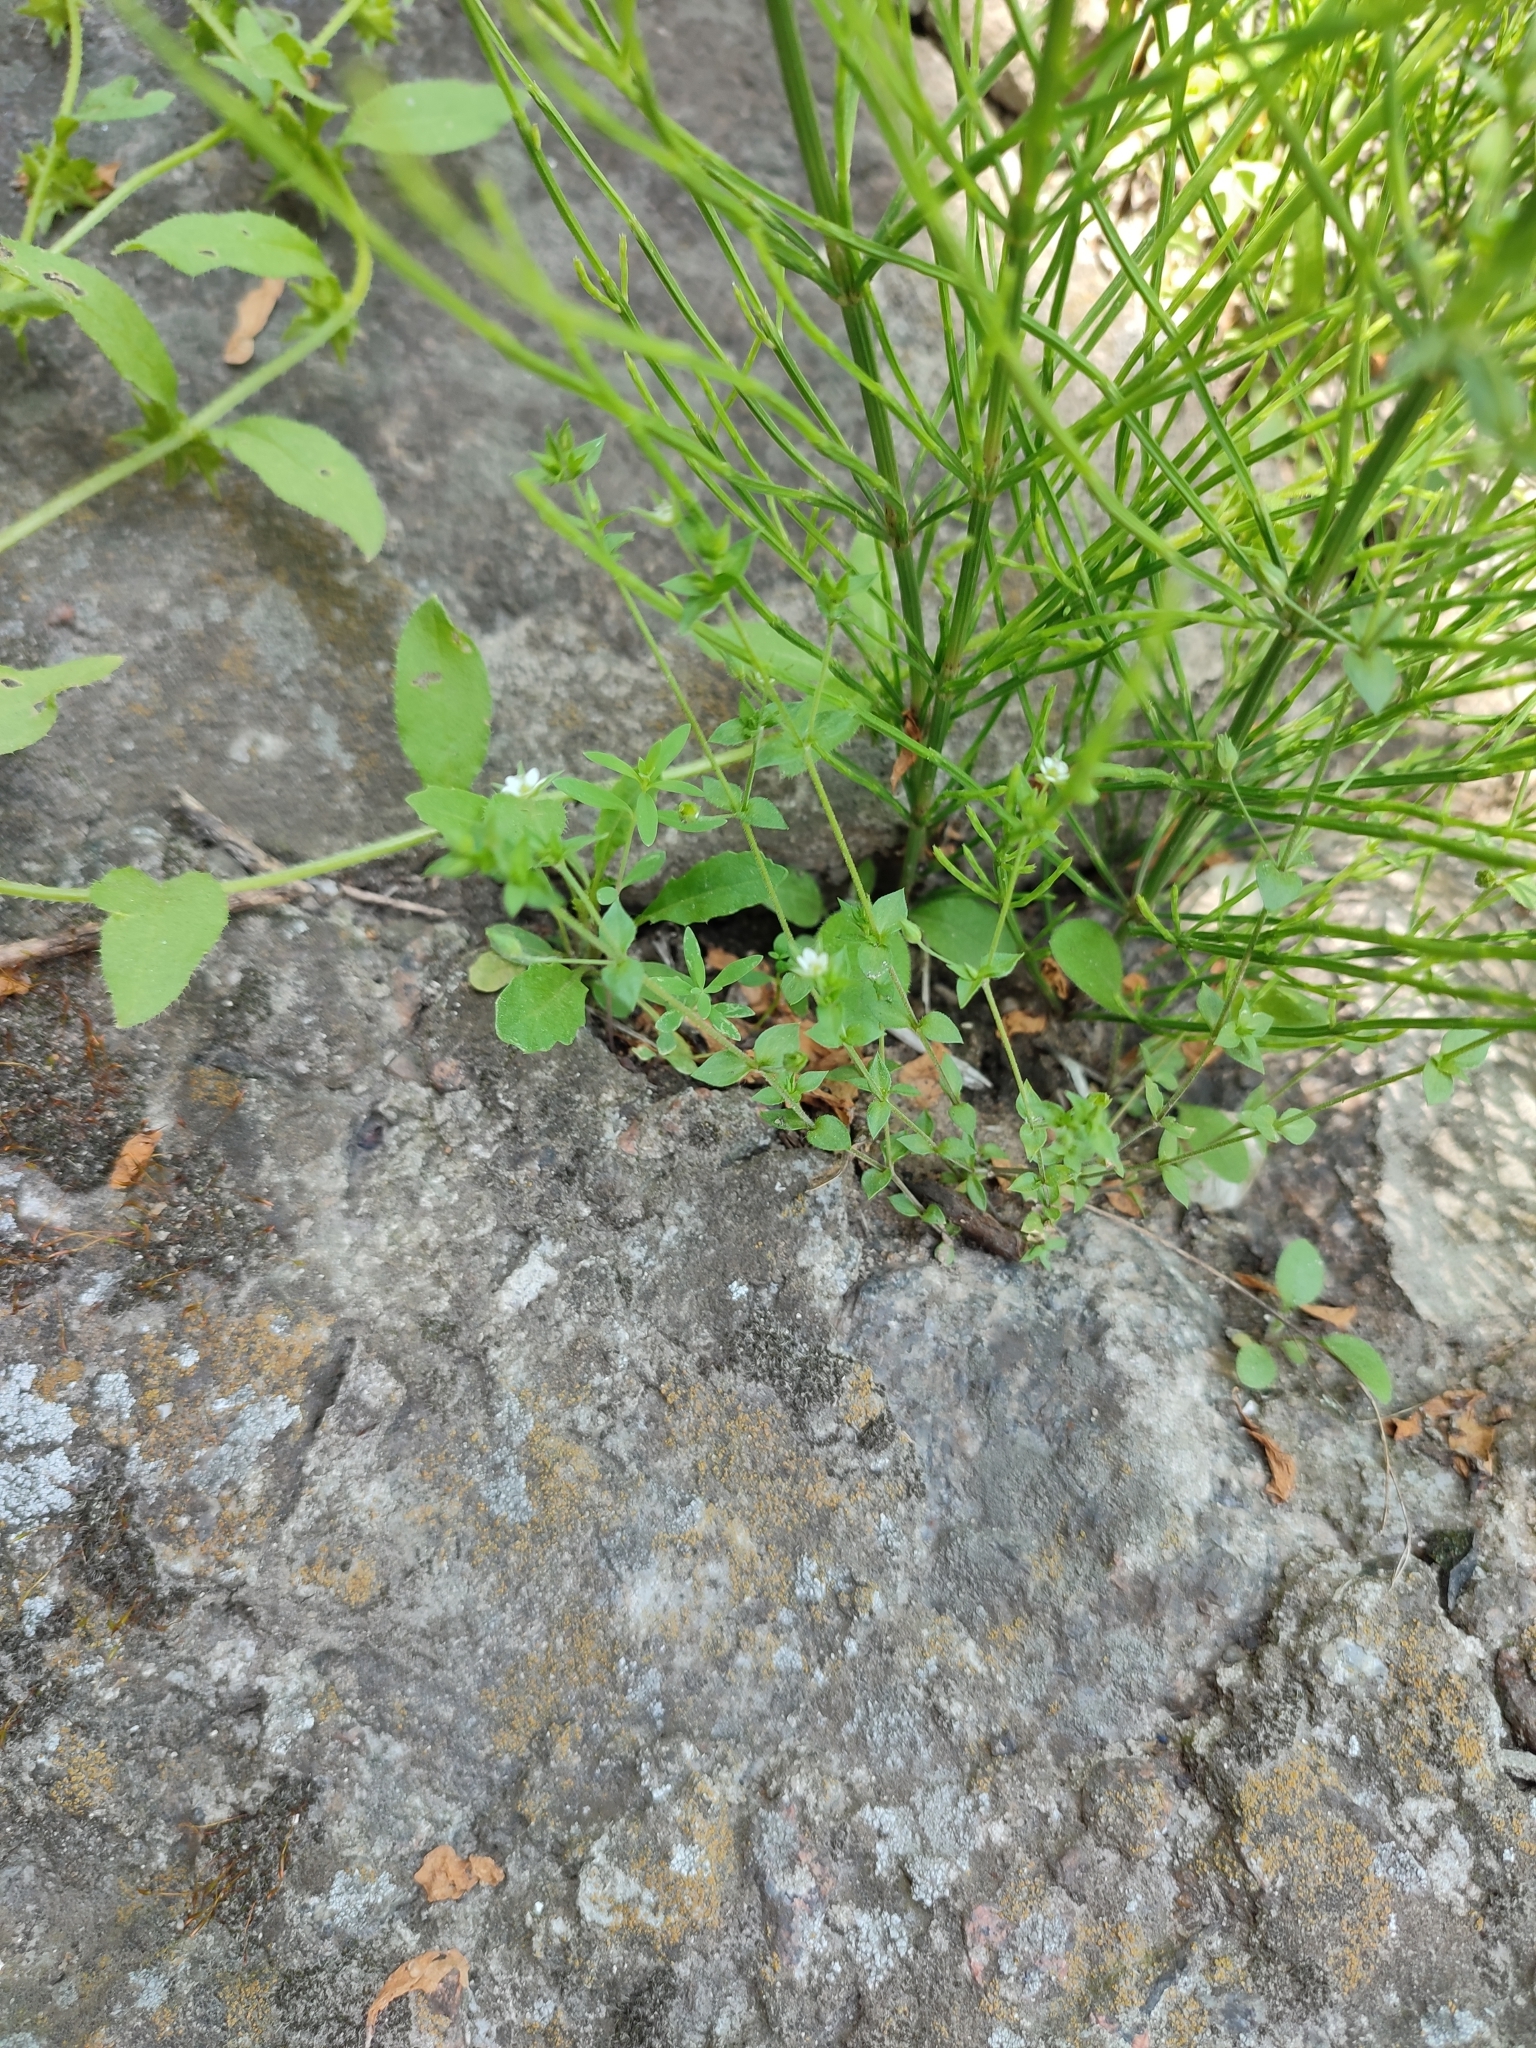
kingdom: Plantae
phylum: Tracheophyta
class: Magnoliopsida
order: Caryophyllales
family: Caryophyllaceae
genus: Arenaria
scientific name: Arenaria serpyllifolia
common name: Thyme-leaved sandwort
